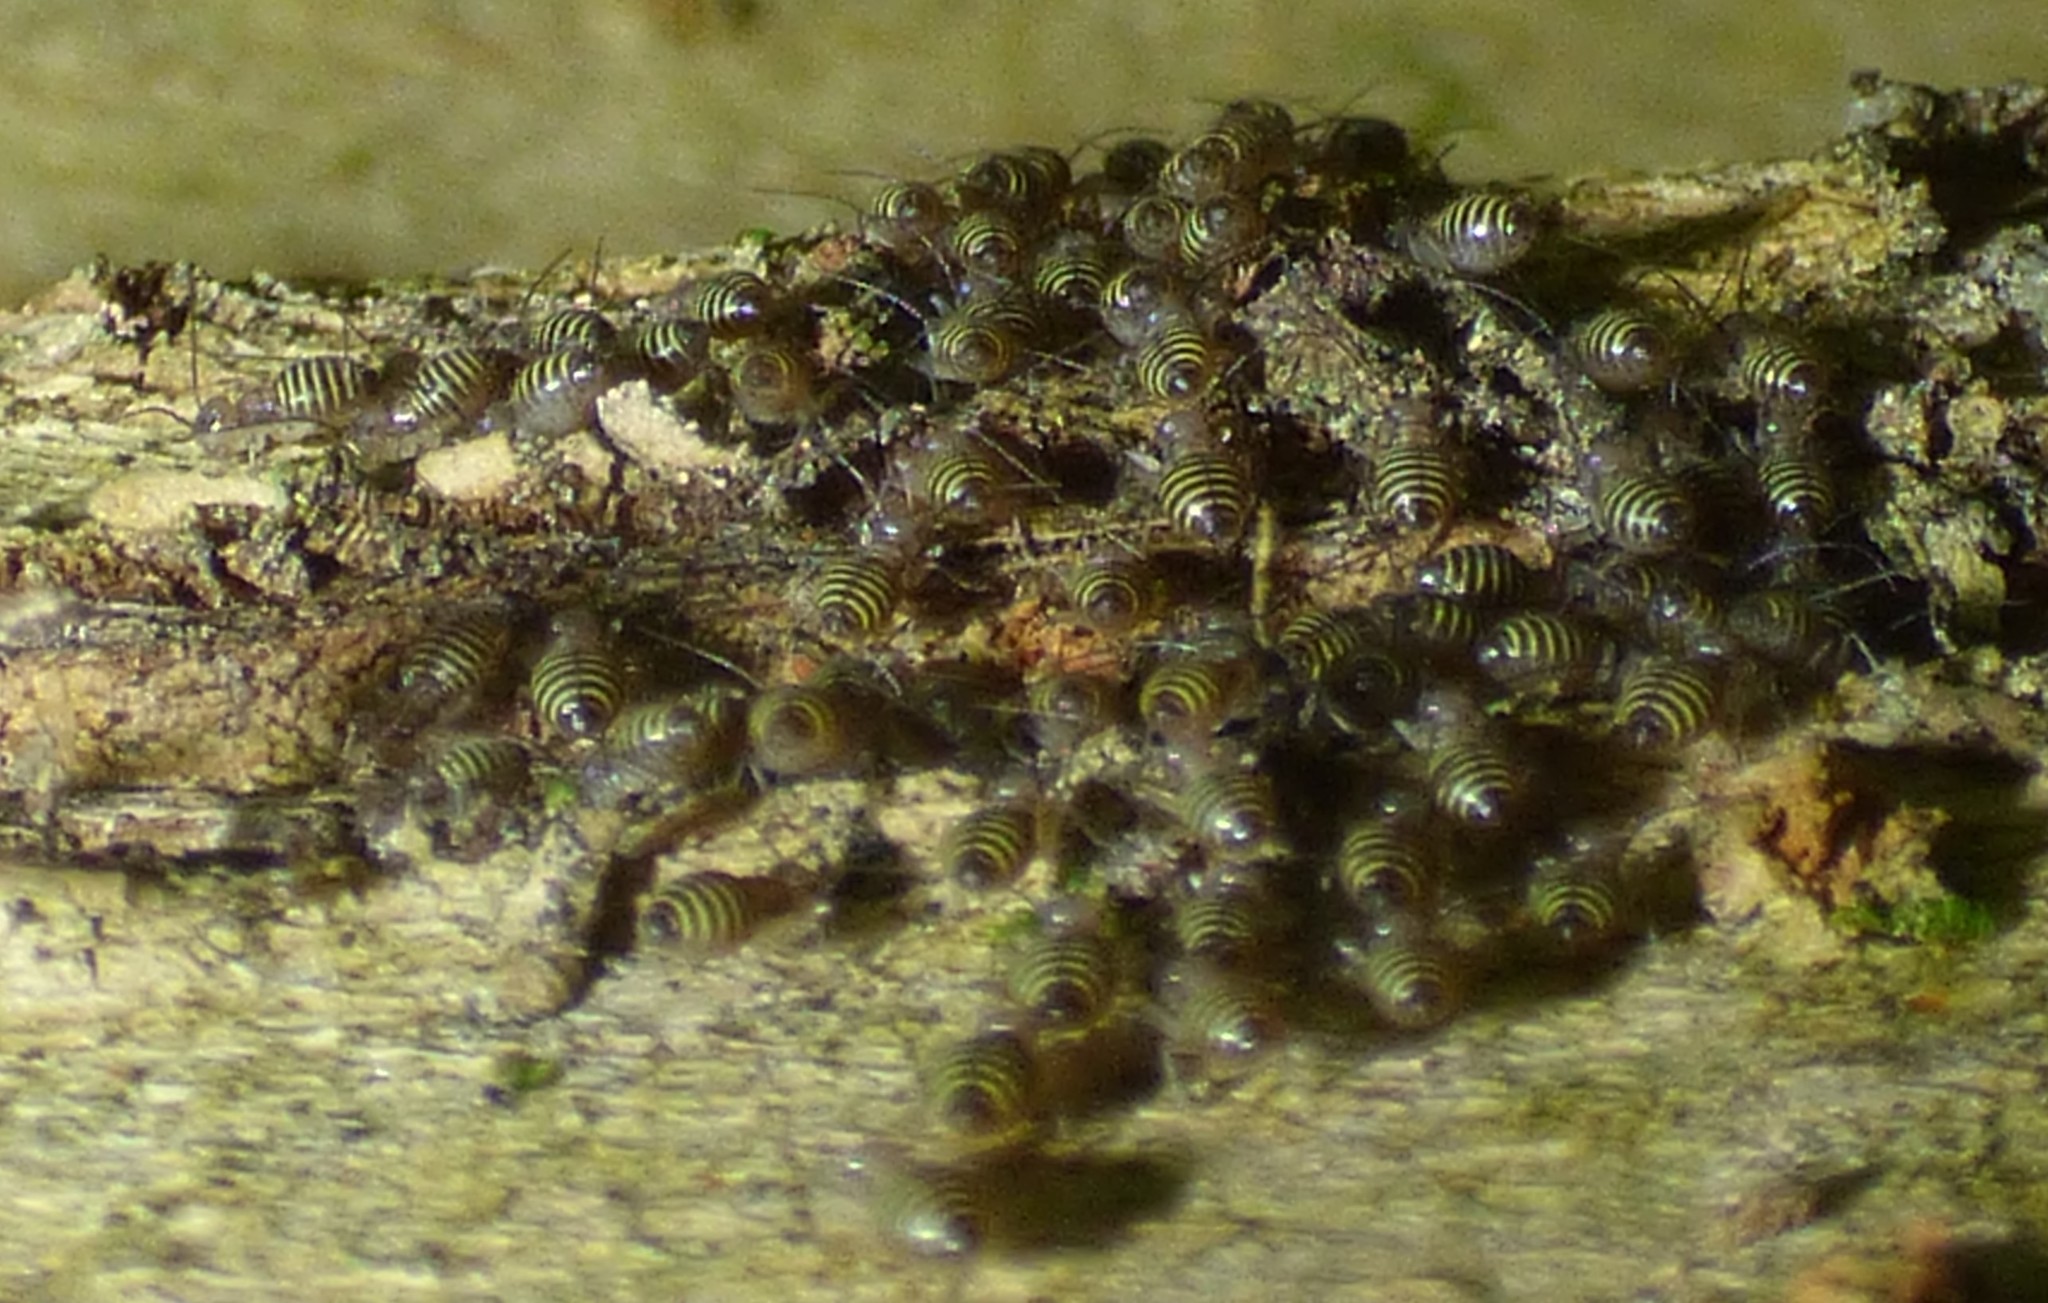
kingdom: Animalia
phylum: Arthropoda
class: Insecta
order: Psocodea
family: Psocidae
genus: Cerastipsocus
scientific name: Cerastipsocus venosus
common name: Tree cattle
